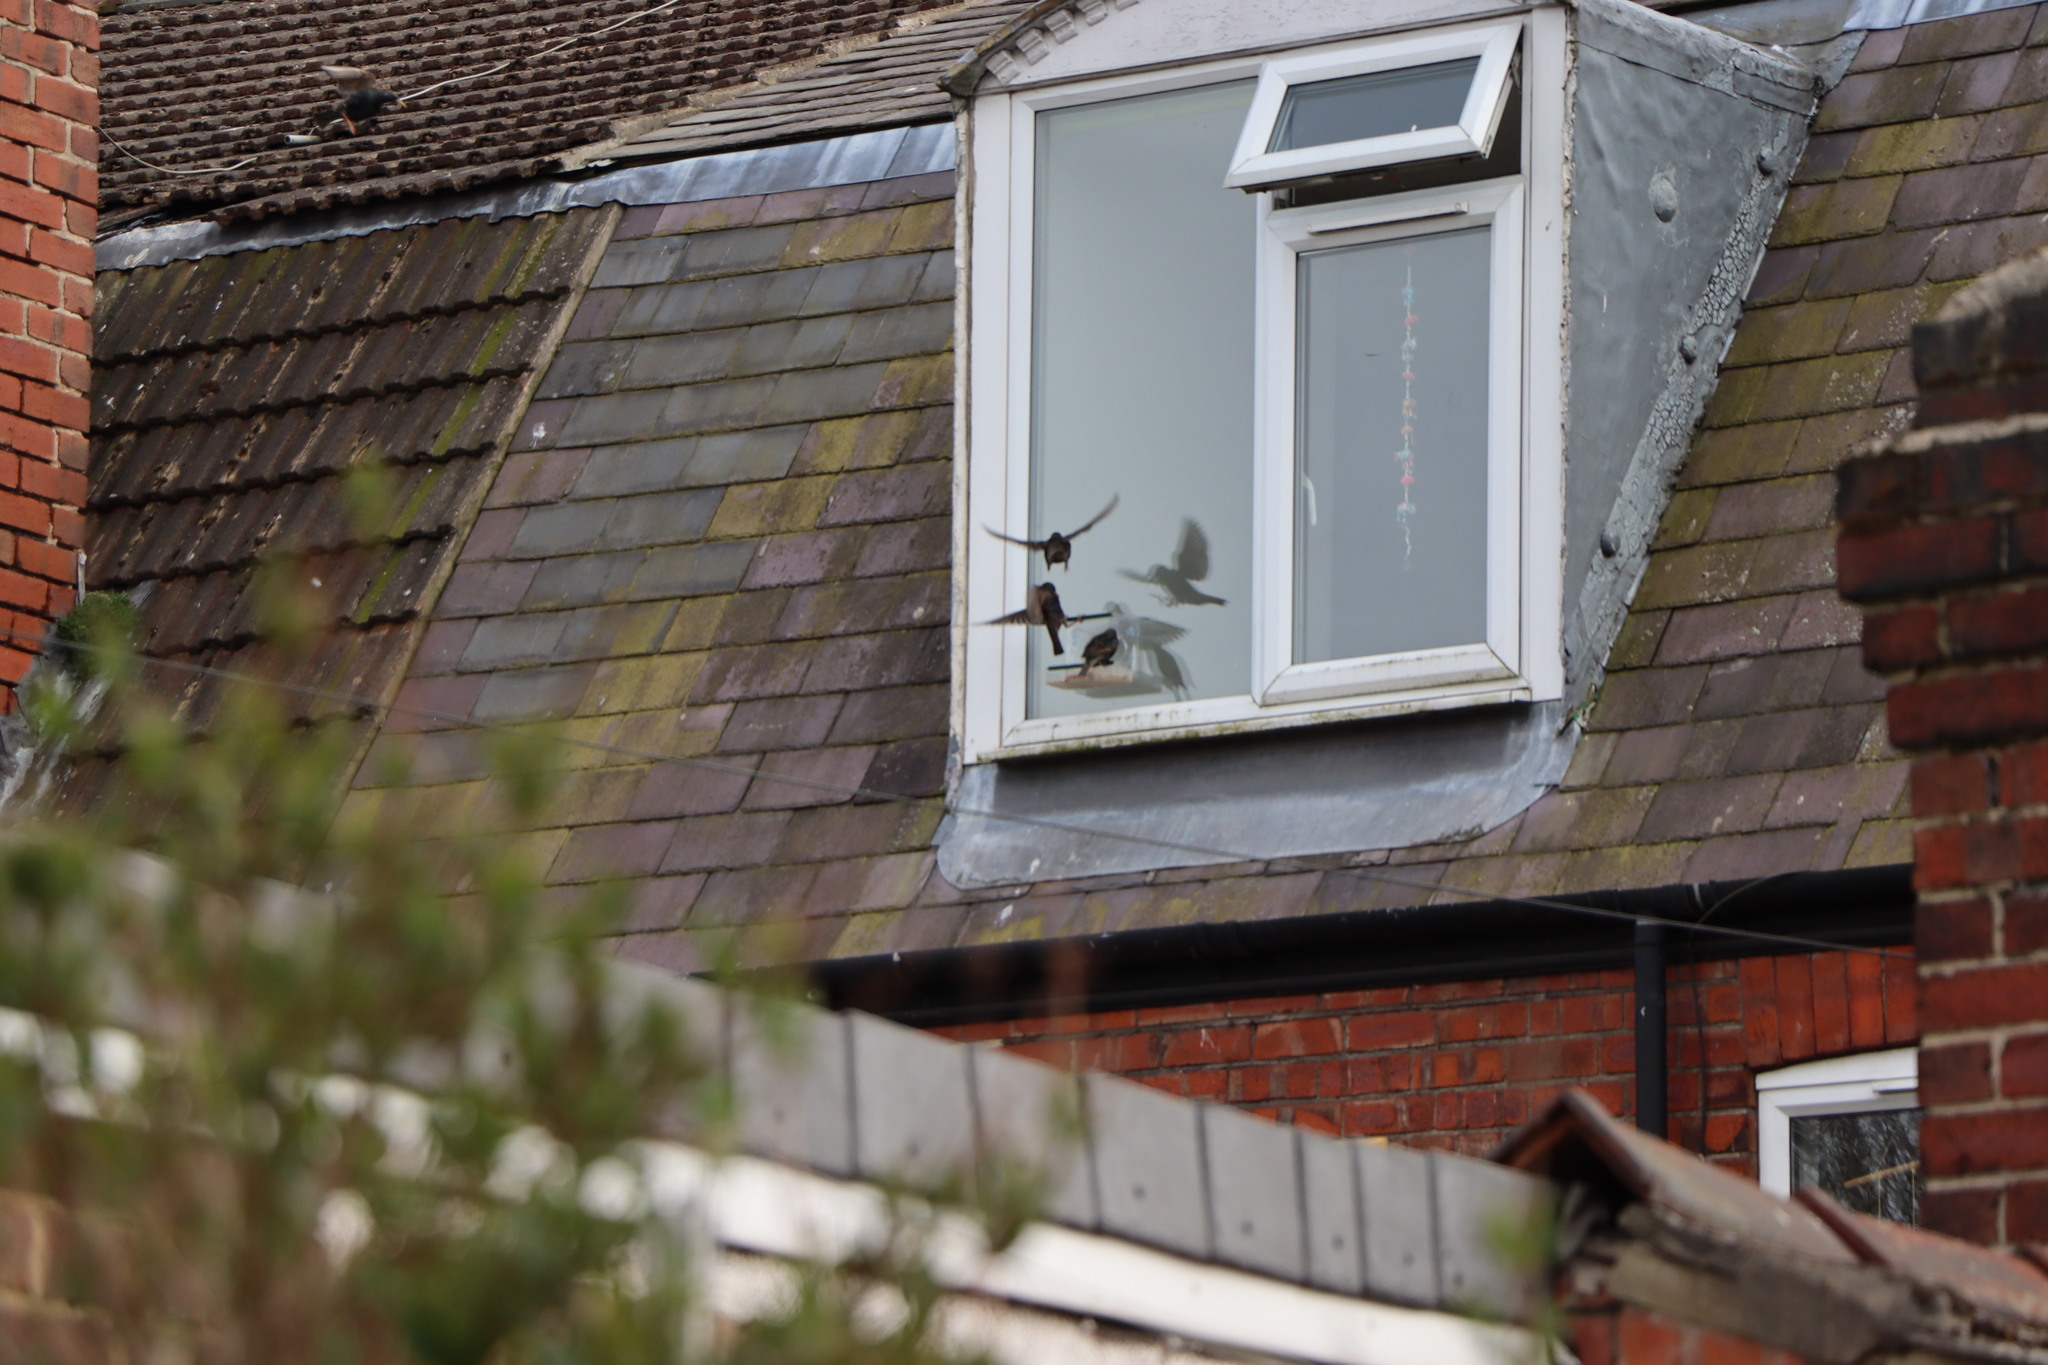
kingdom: Animalia
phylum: Chordata
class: Aves
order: Passeriformes
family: Sturnidae
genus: Sturnus
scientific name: Sturnus vulgaris
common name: Common starling
